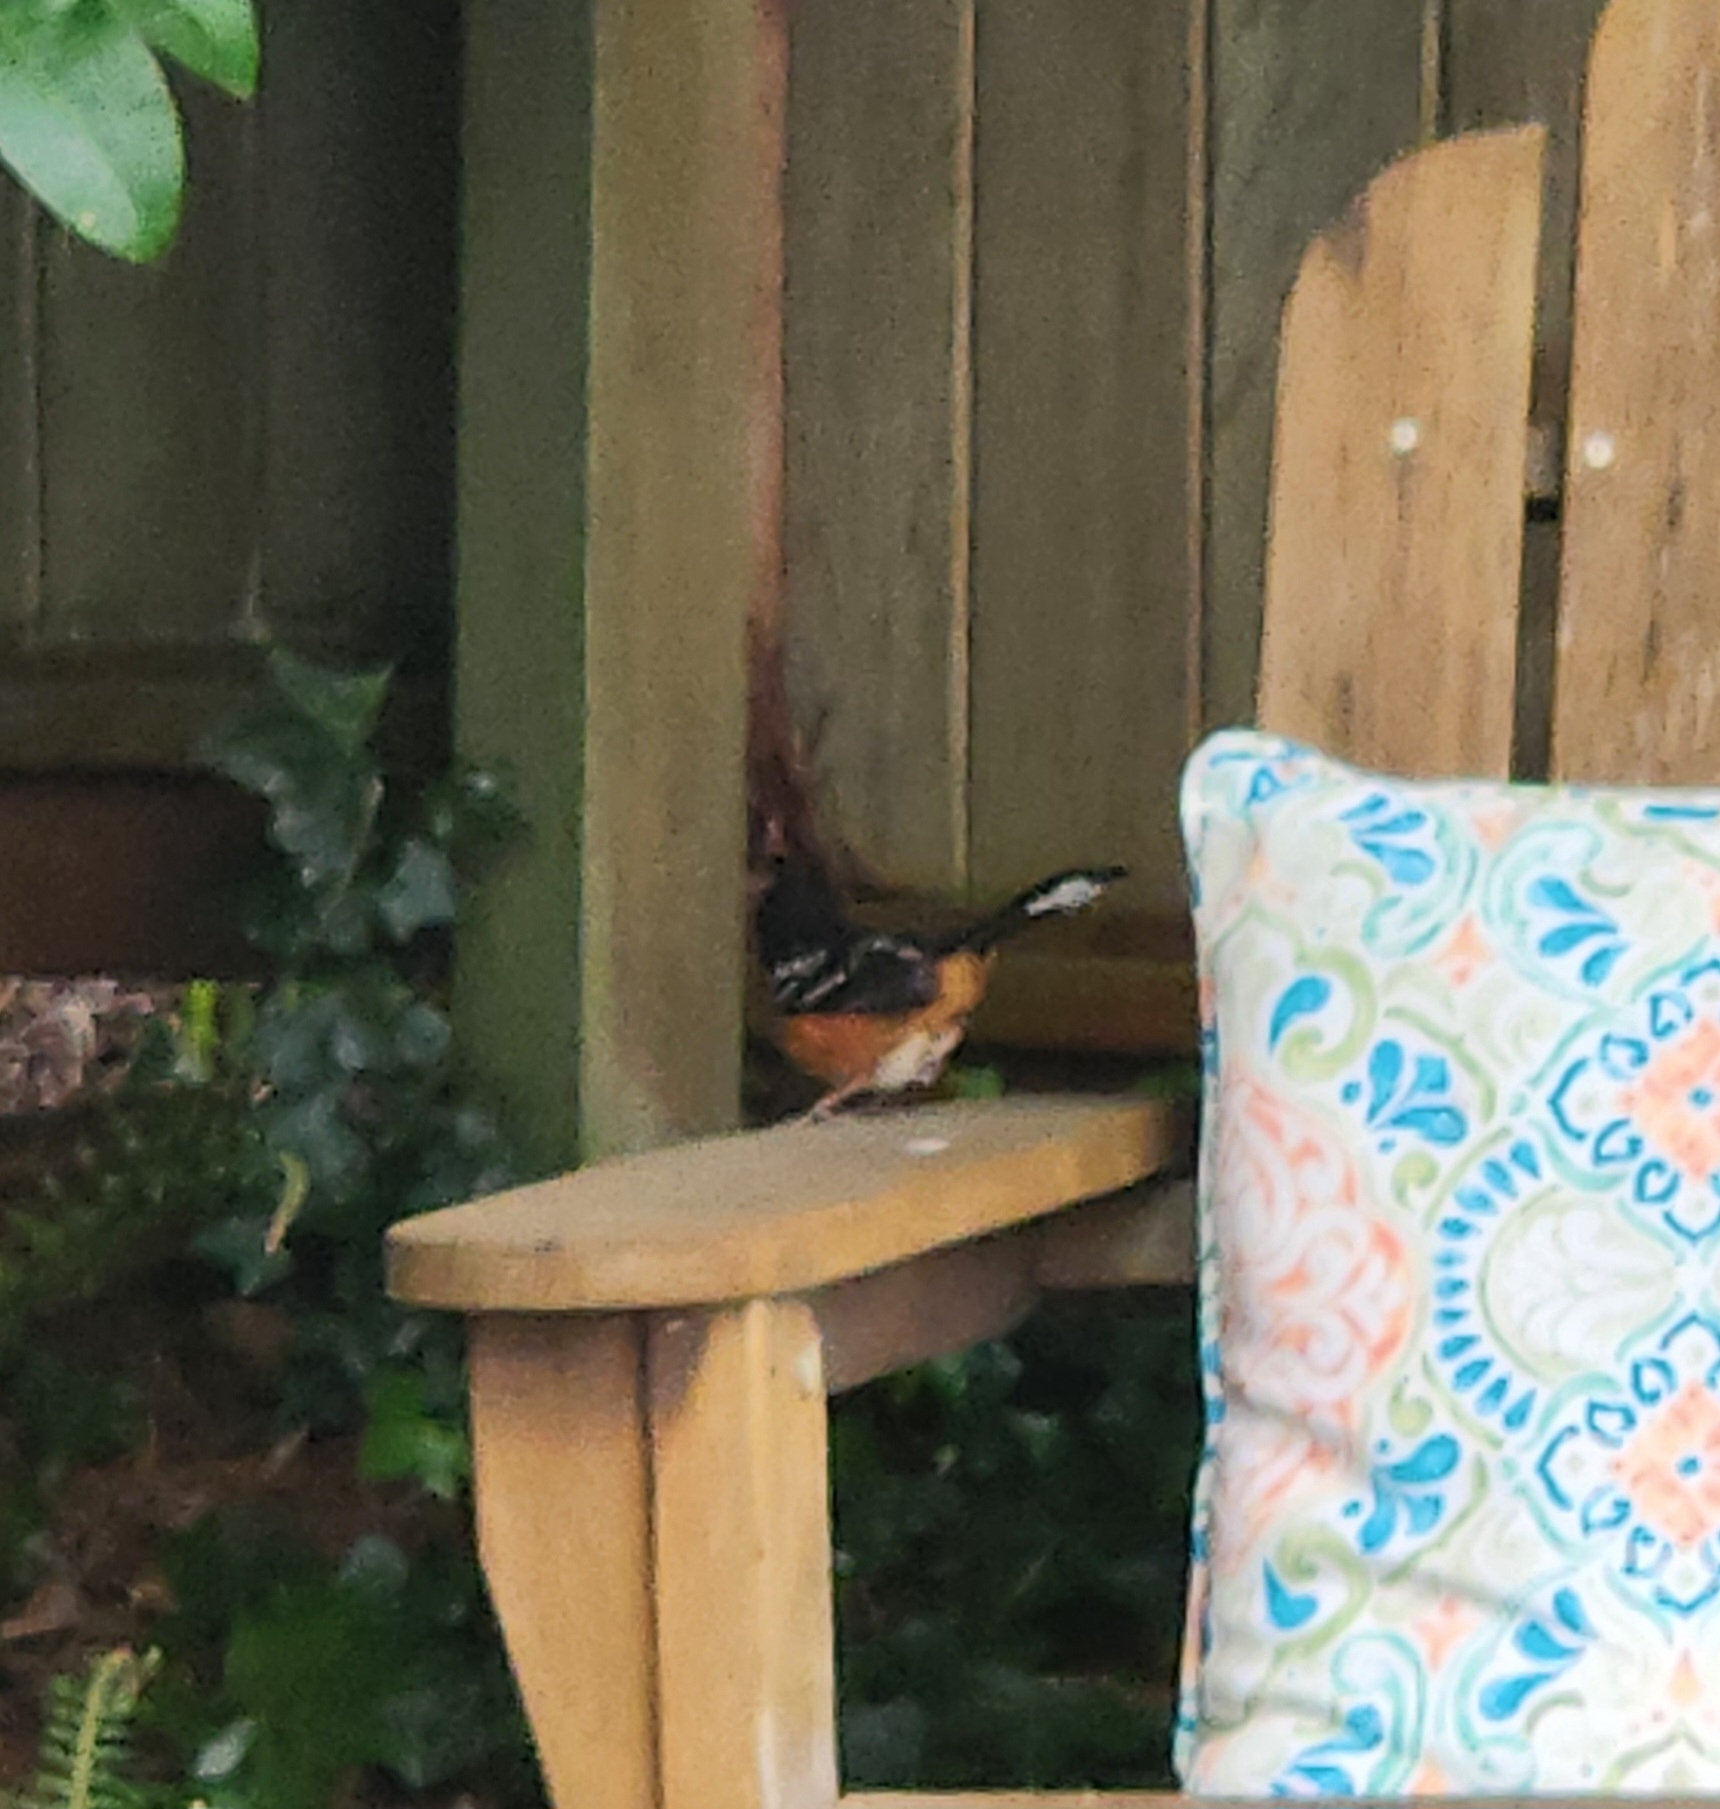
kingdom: Animalia
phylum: Chordata
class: Aves
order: Passeriformes
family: Passerellidae
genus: Pipilo
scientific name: Pipilo maculatus
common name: Spotted towhee
